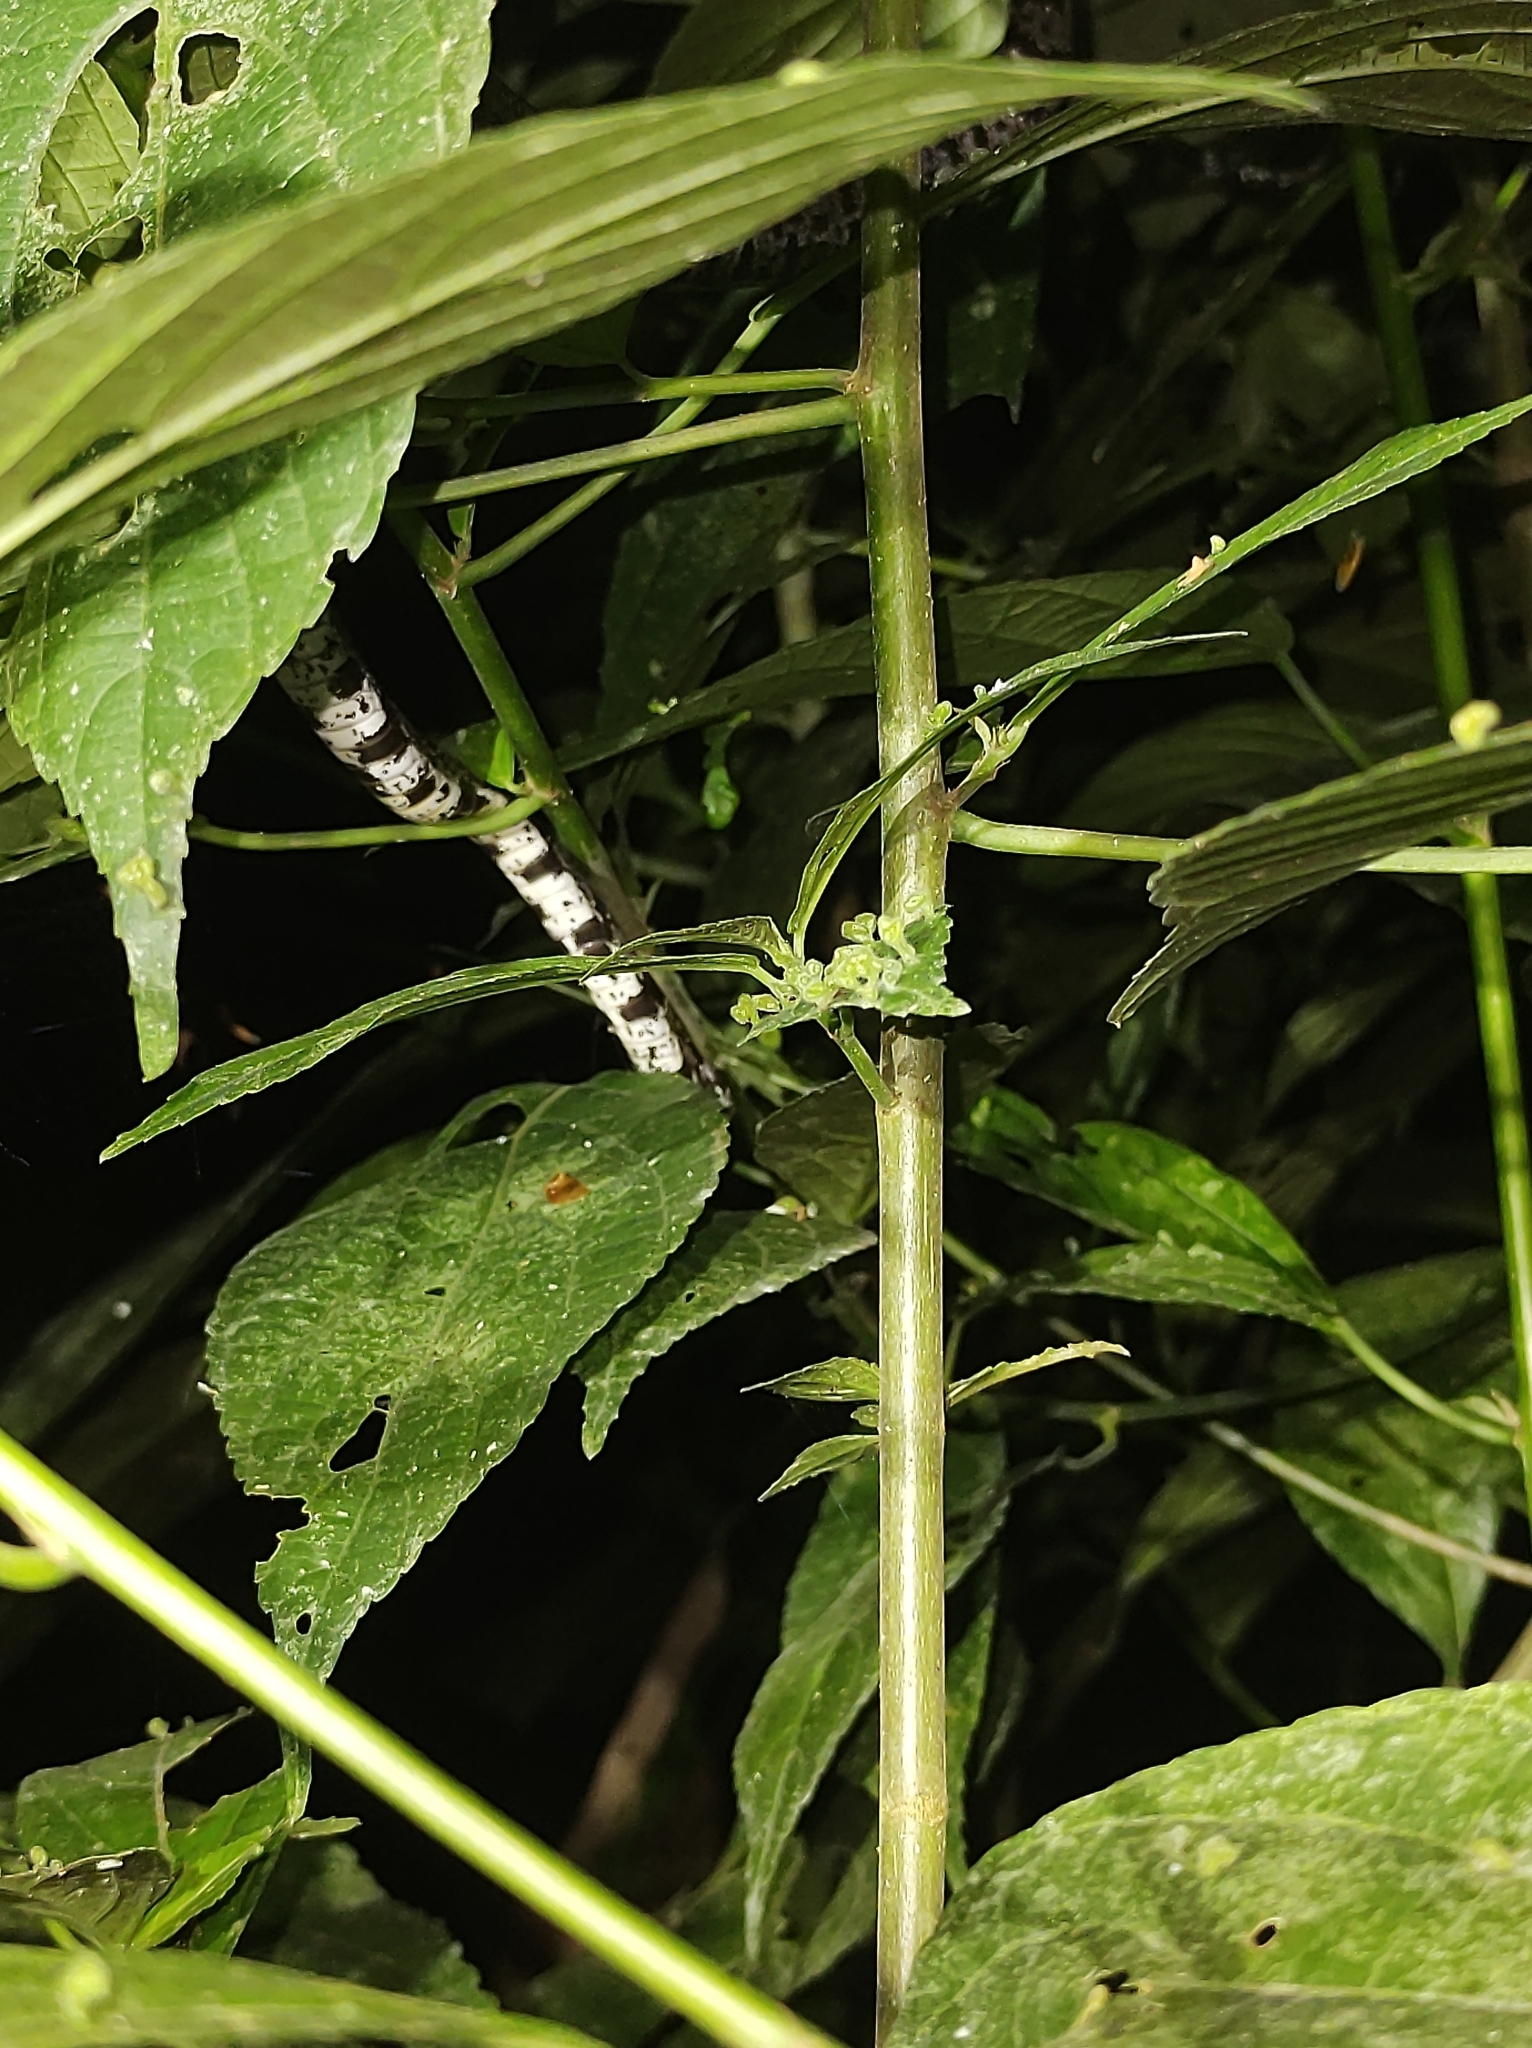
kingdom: Animalia
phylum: Chordata
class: Squamata
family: Colubridae
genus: Sibon
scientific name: Sibon nebulatus
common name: Cloudy snail-eating snake
